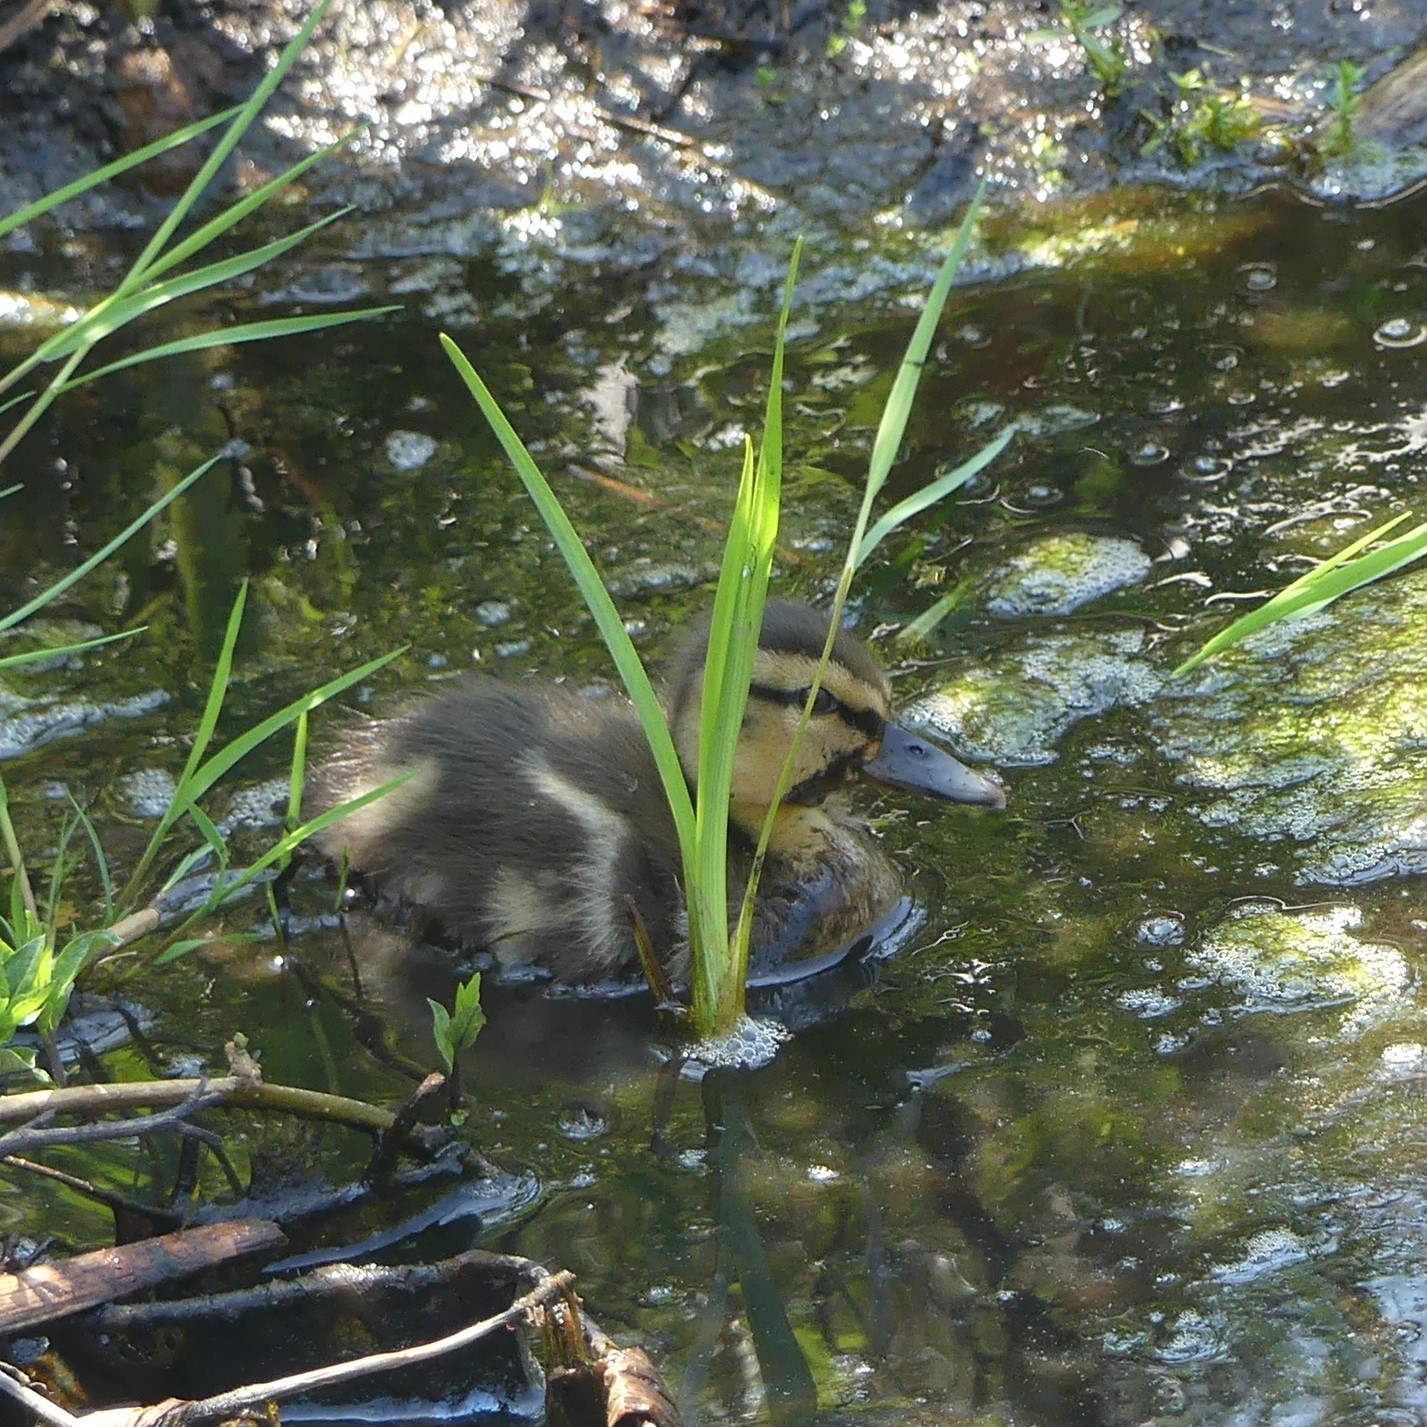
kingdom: Animalia
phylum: Chordata
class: Aves
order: Anseriformes
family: Anatidae
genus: Anas
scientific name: Anas platyrhynchos
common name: Mallard
